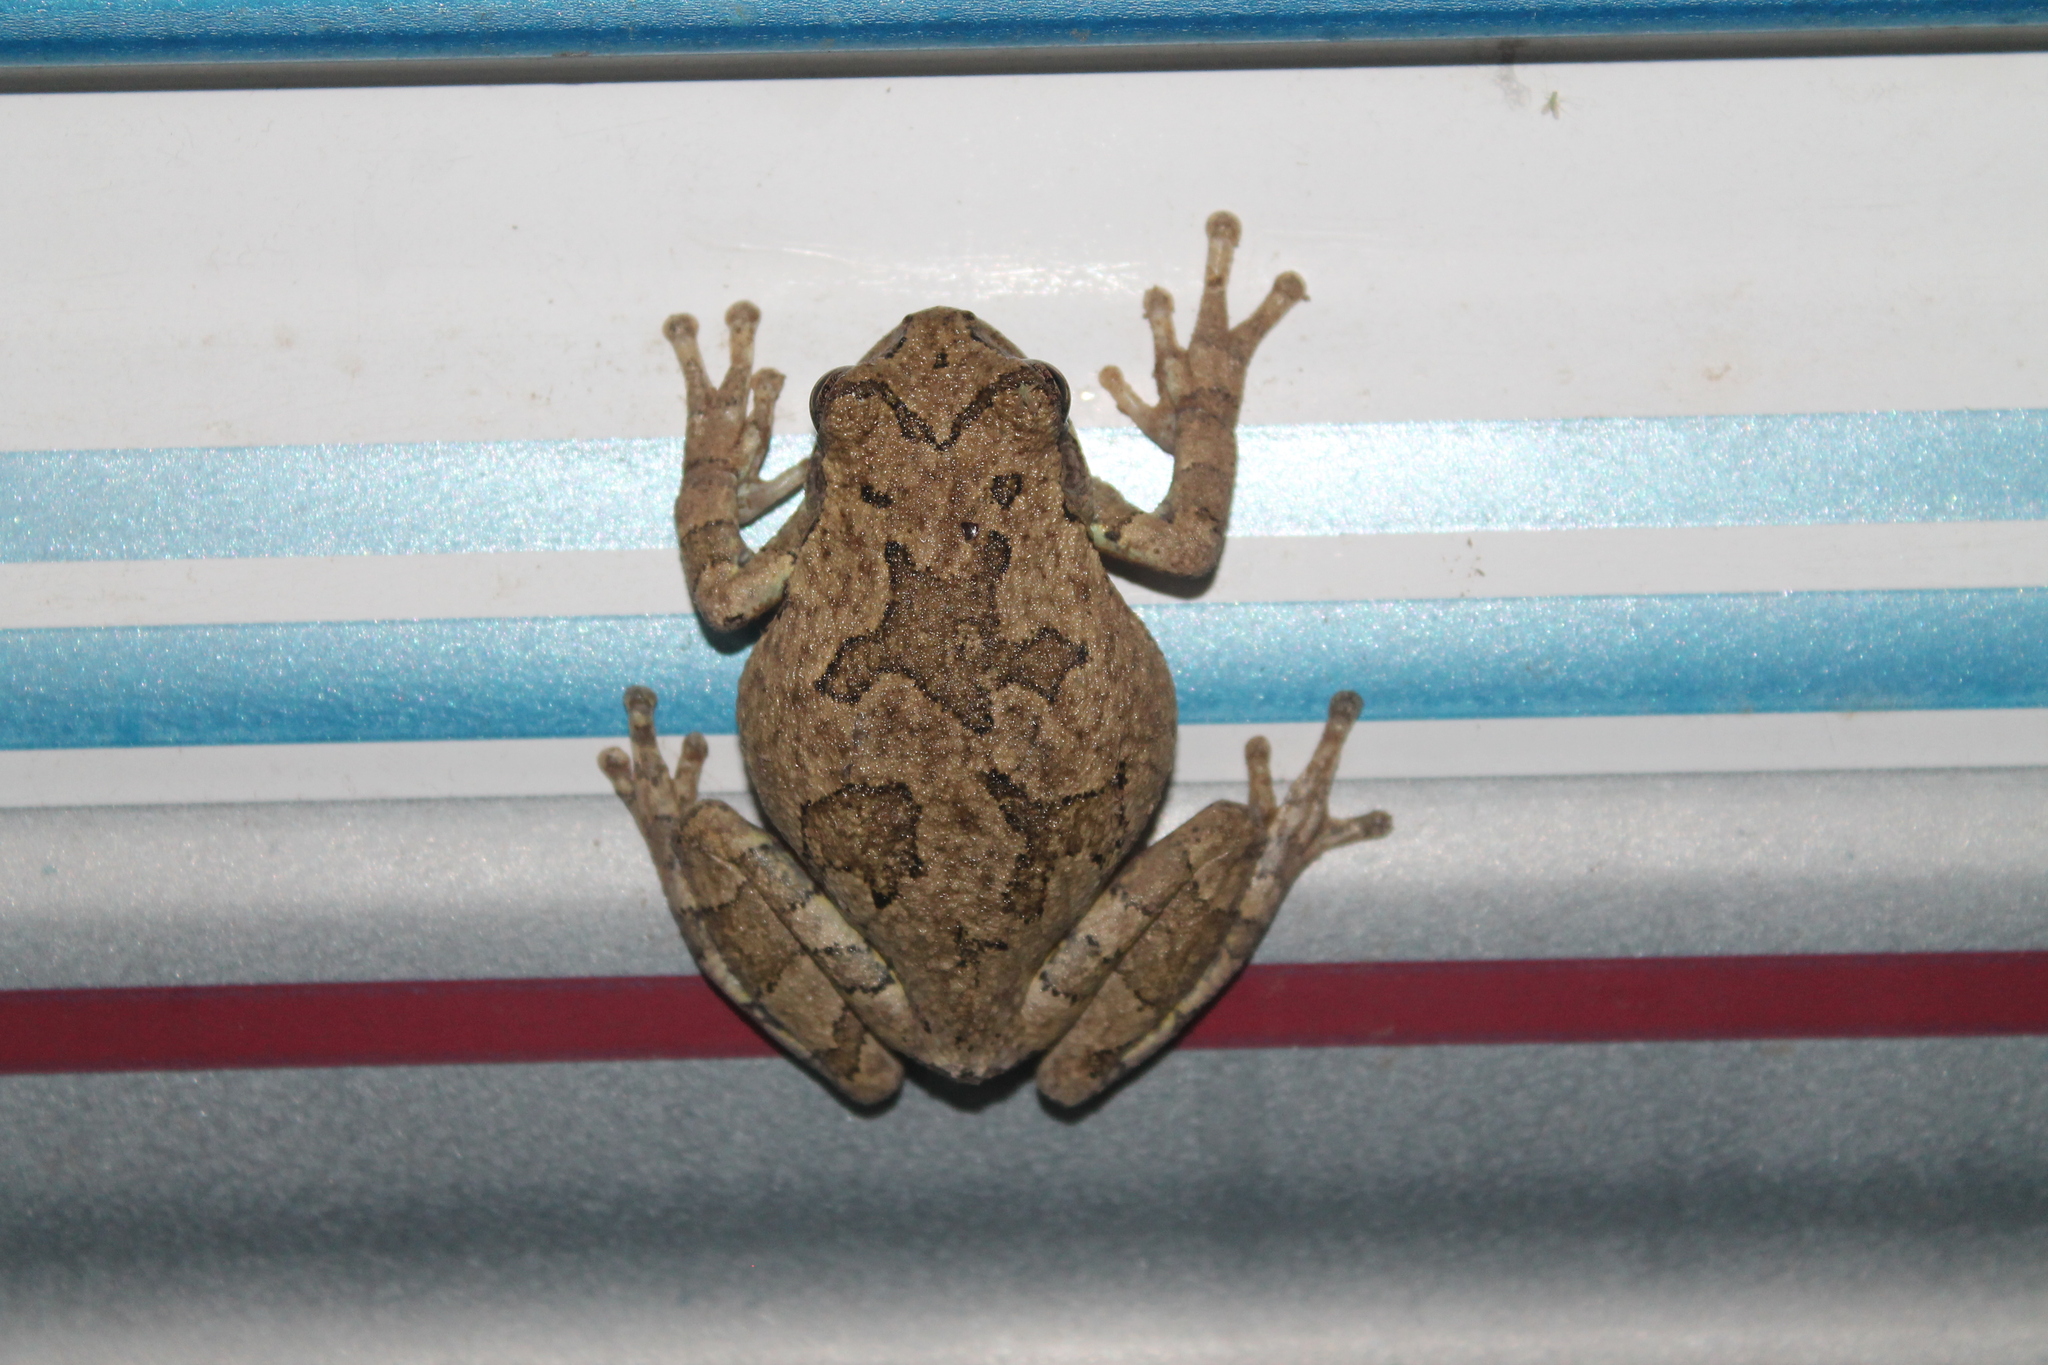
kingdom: Animalia
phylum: Chordata
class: Amphibia
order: Anura
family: Hylidae
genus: Dryophytes
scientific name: Dryophytes versicolor
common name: Gray treefrog
